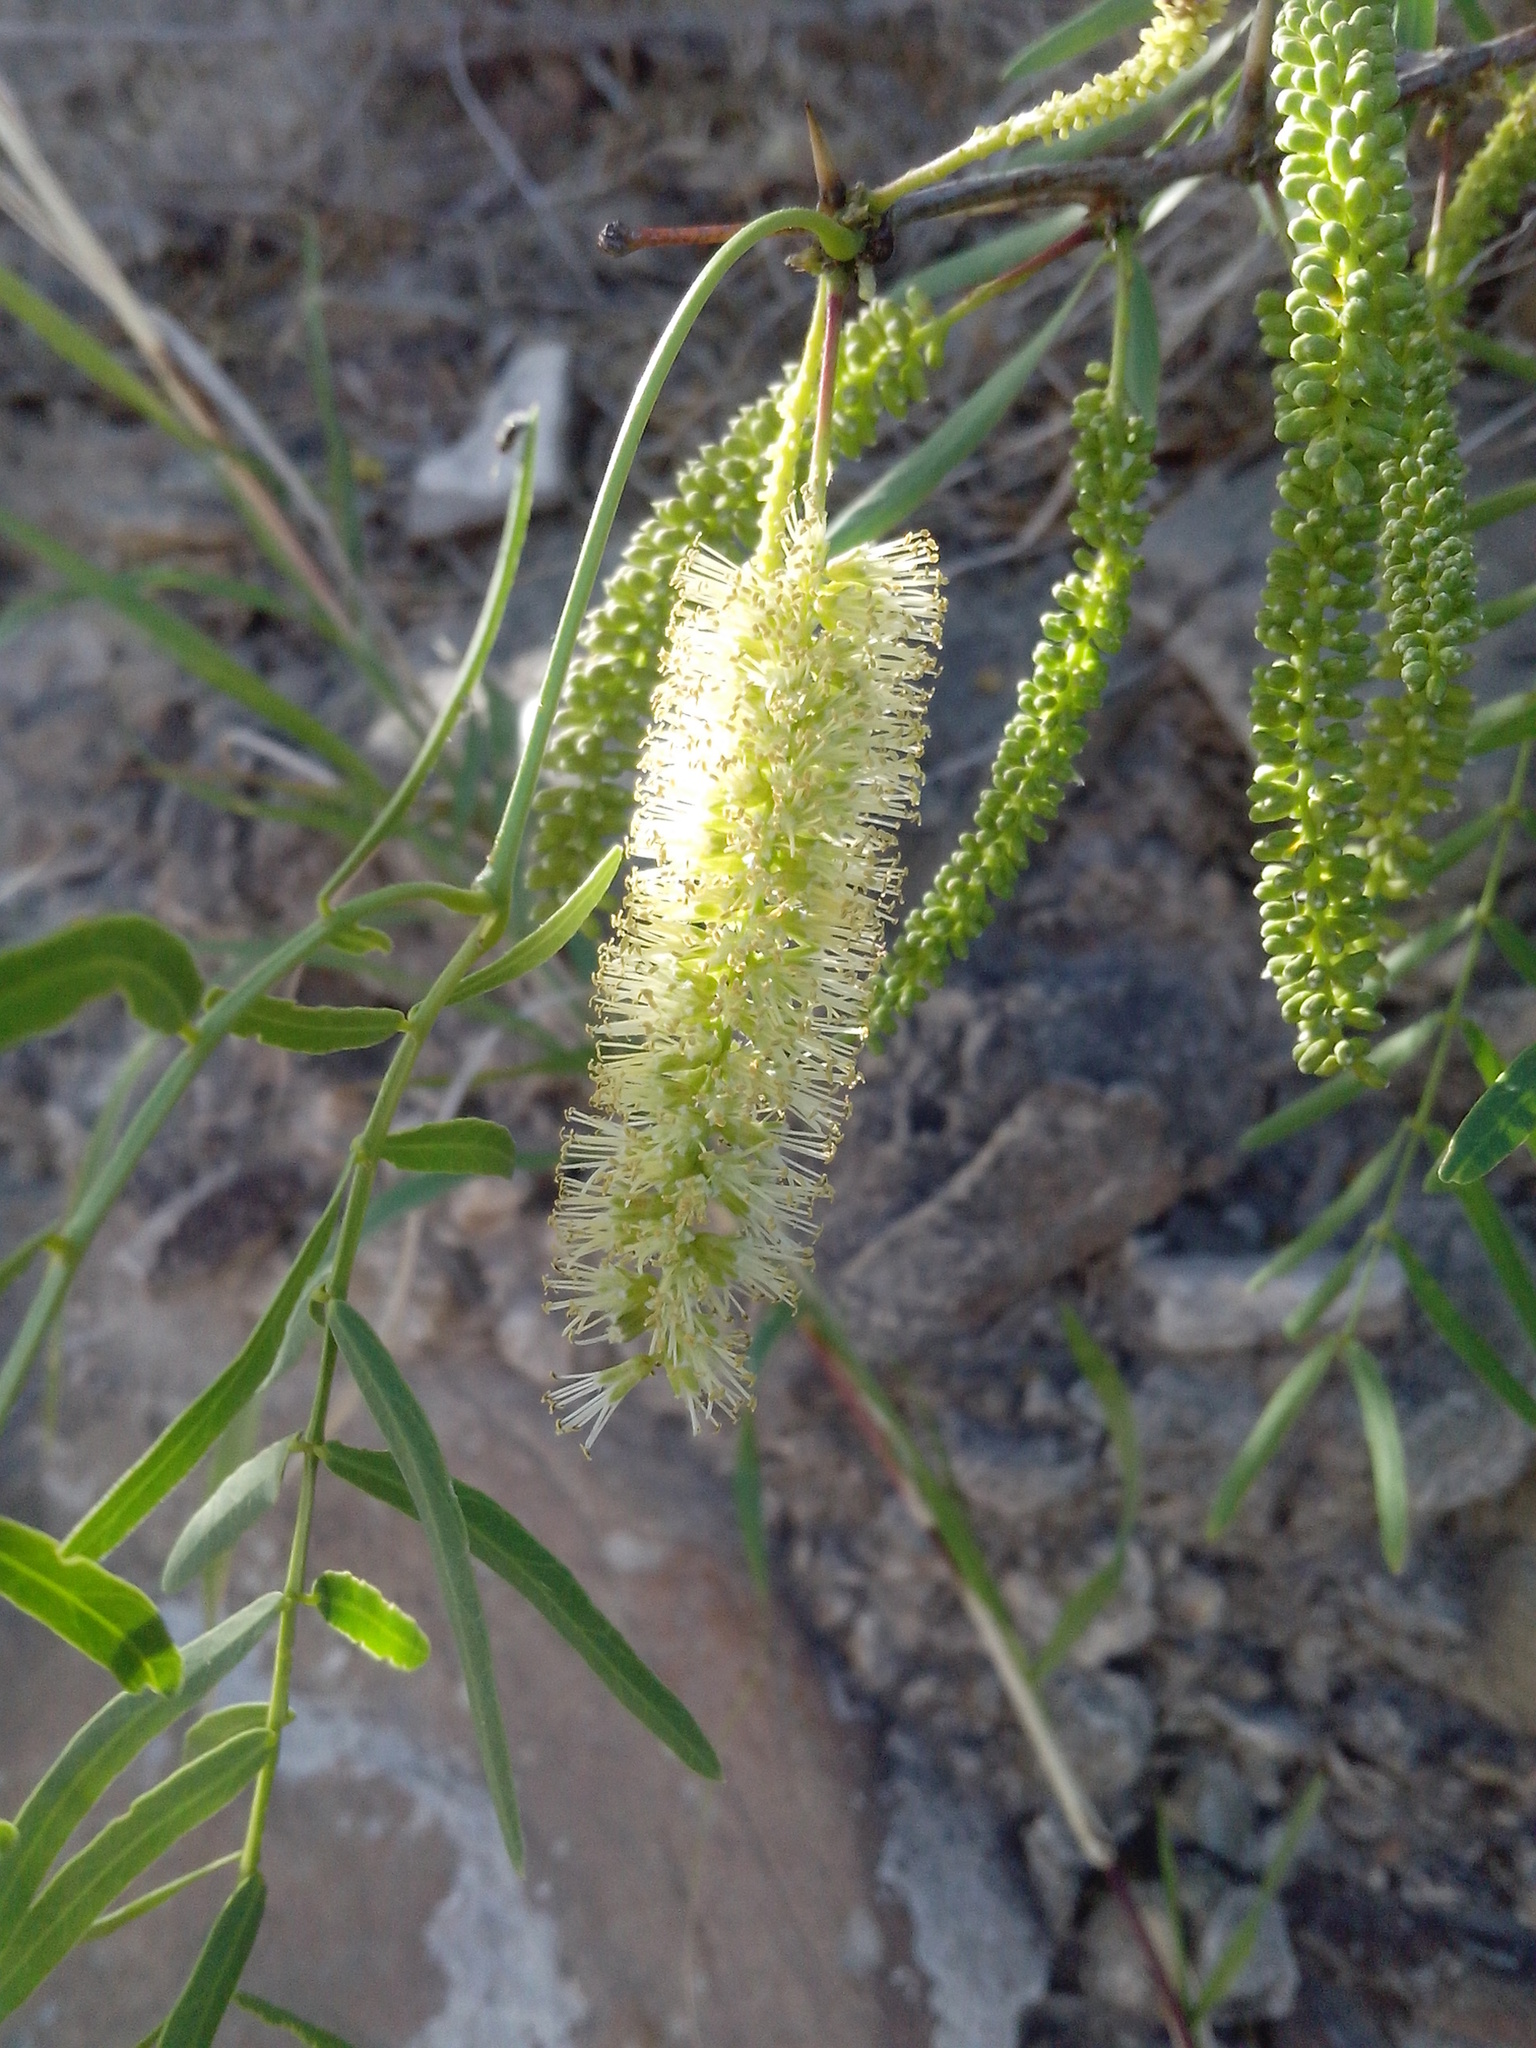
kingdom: Plantae
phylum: Tracheophyta
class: Magnoliopsida
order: Fabales
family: Fabaceae
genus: Prosopis
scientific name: Prosopis glandulosa
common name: Honey mesquite
